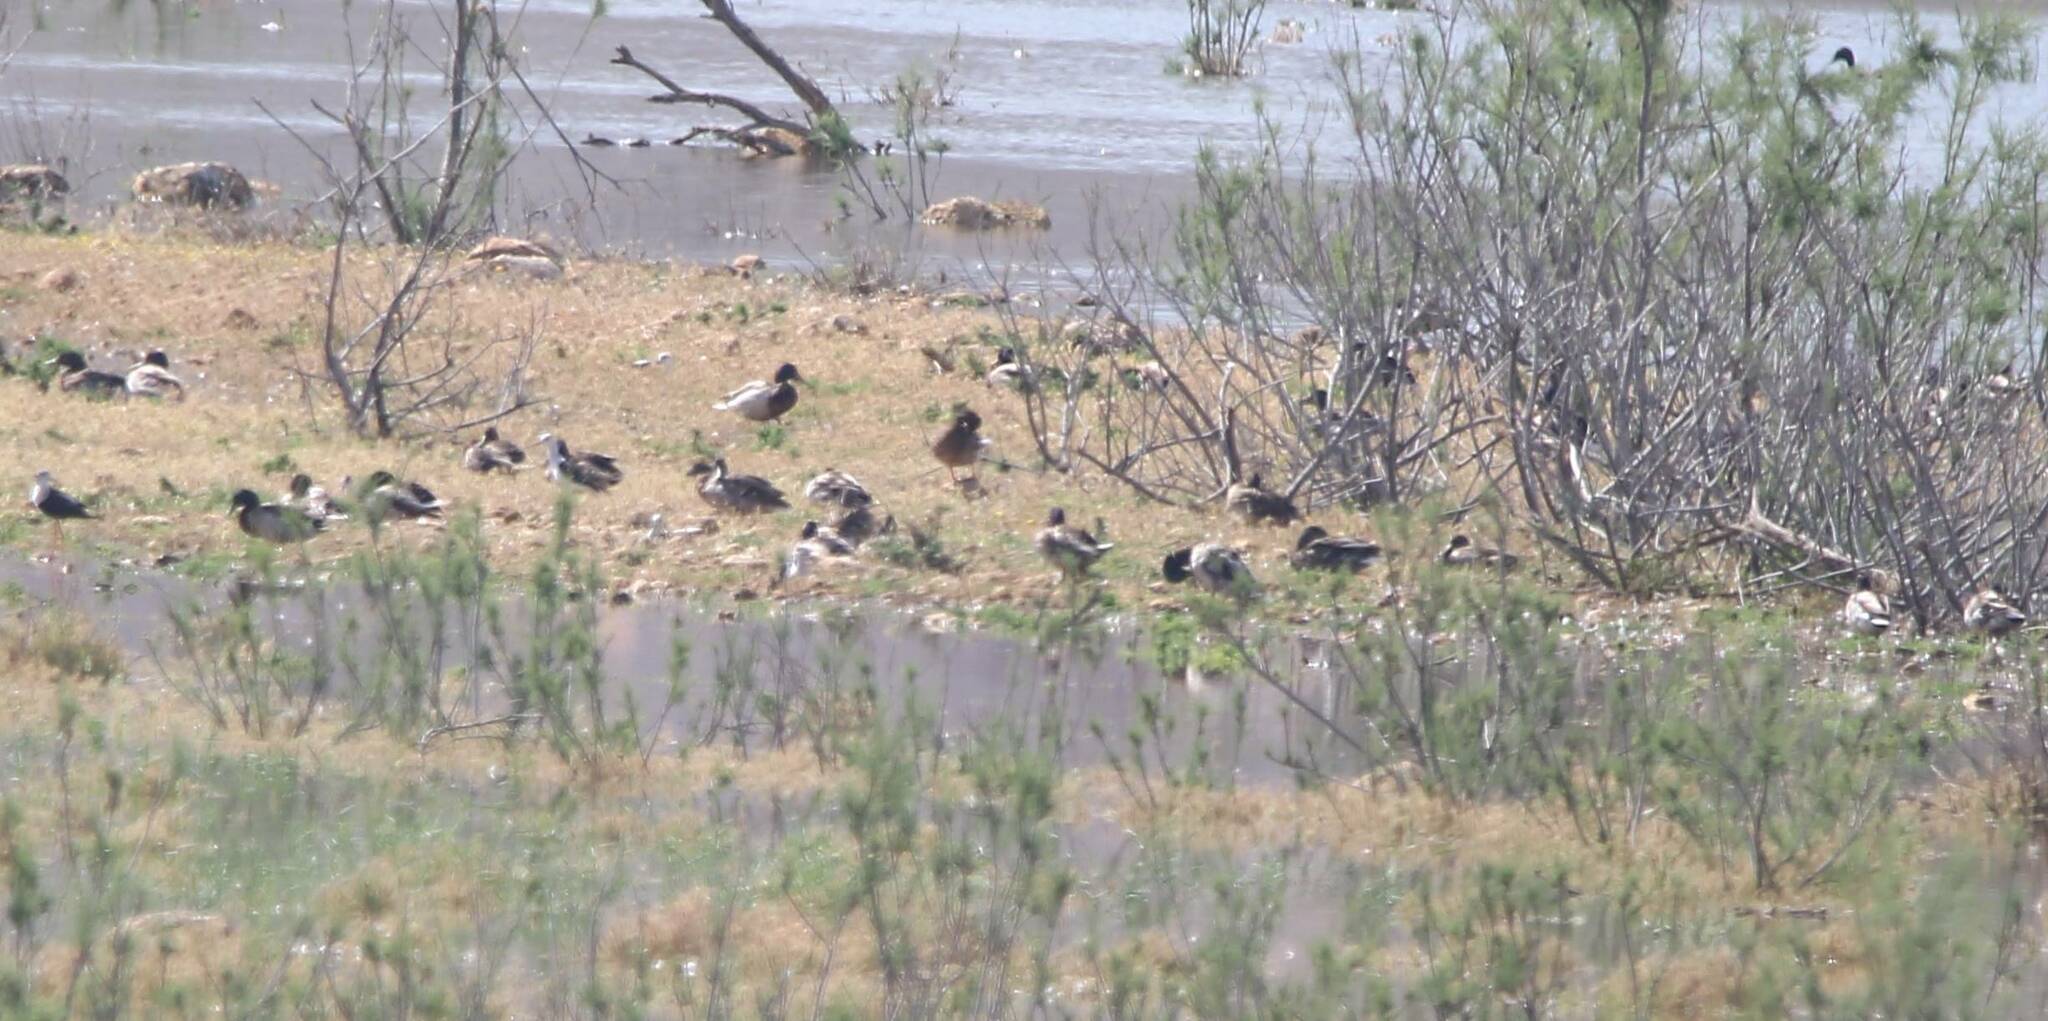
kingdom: Animalia
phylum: Chordata
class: Aves
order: Anseriformes
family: Anatidae
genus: Anas
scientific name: Anas platyrhynchos
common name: Mallard
